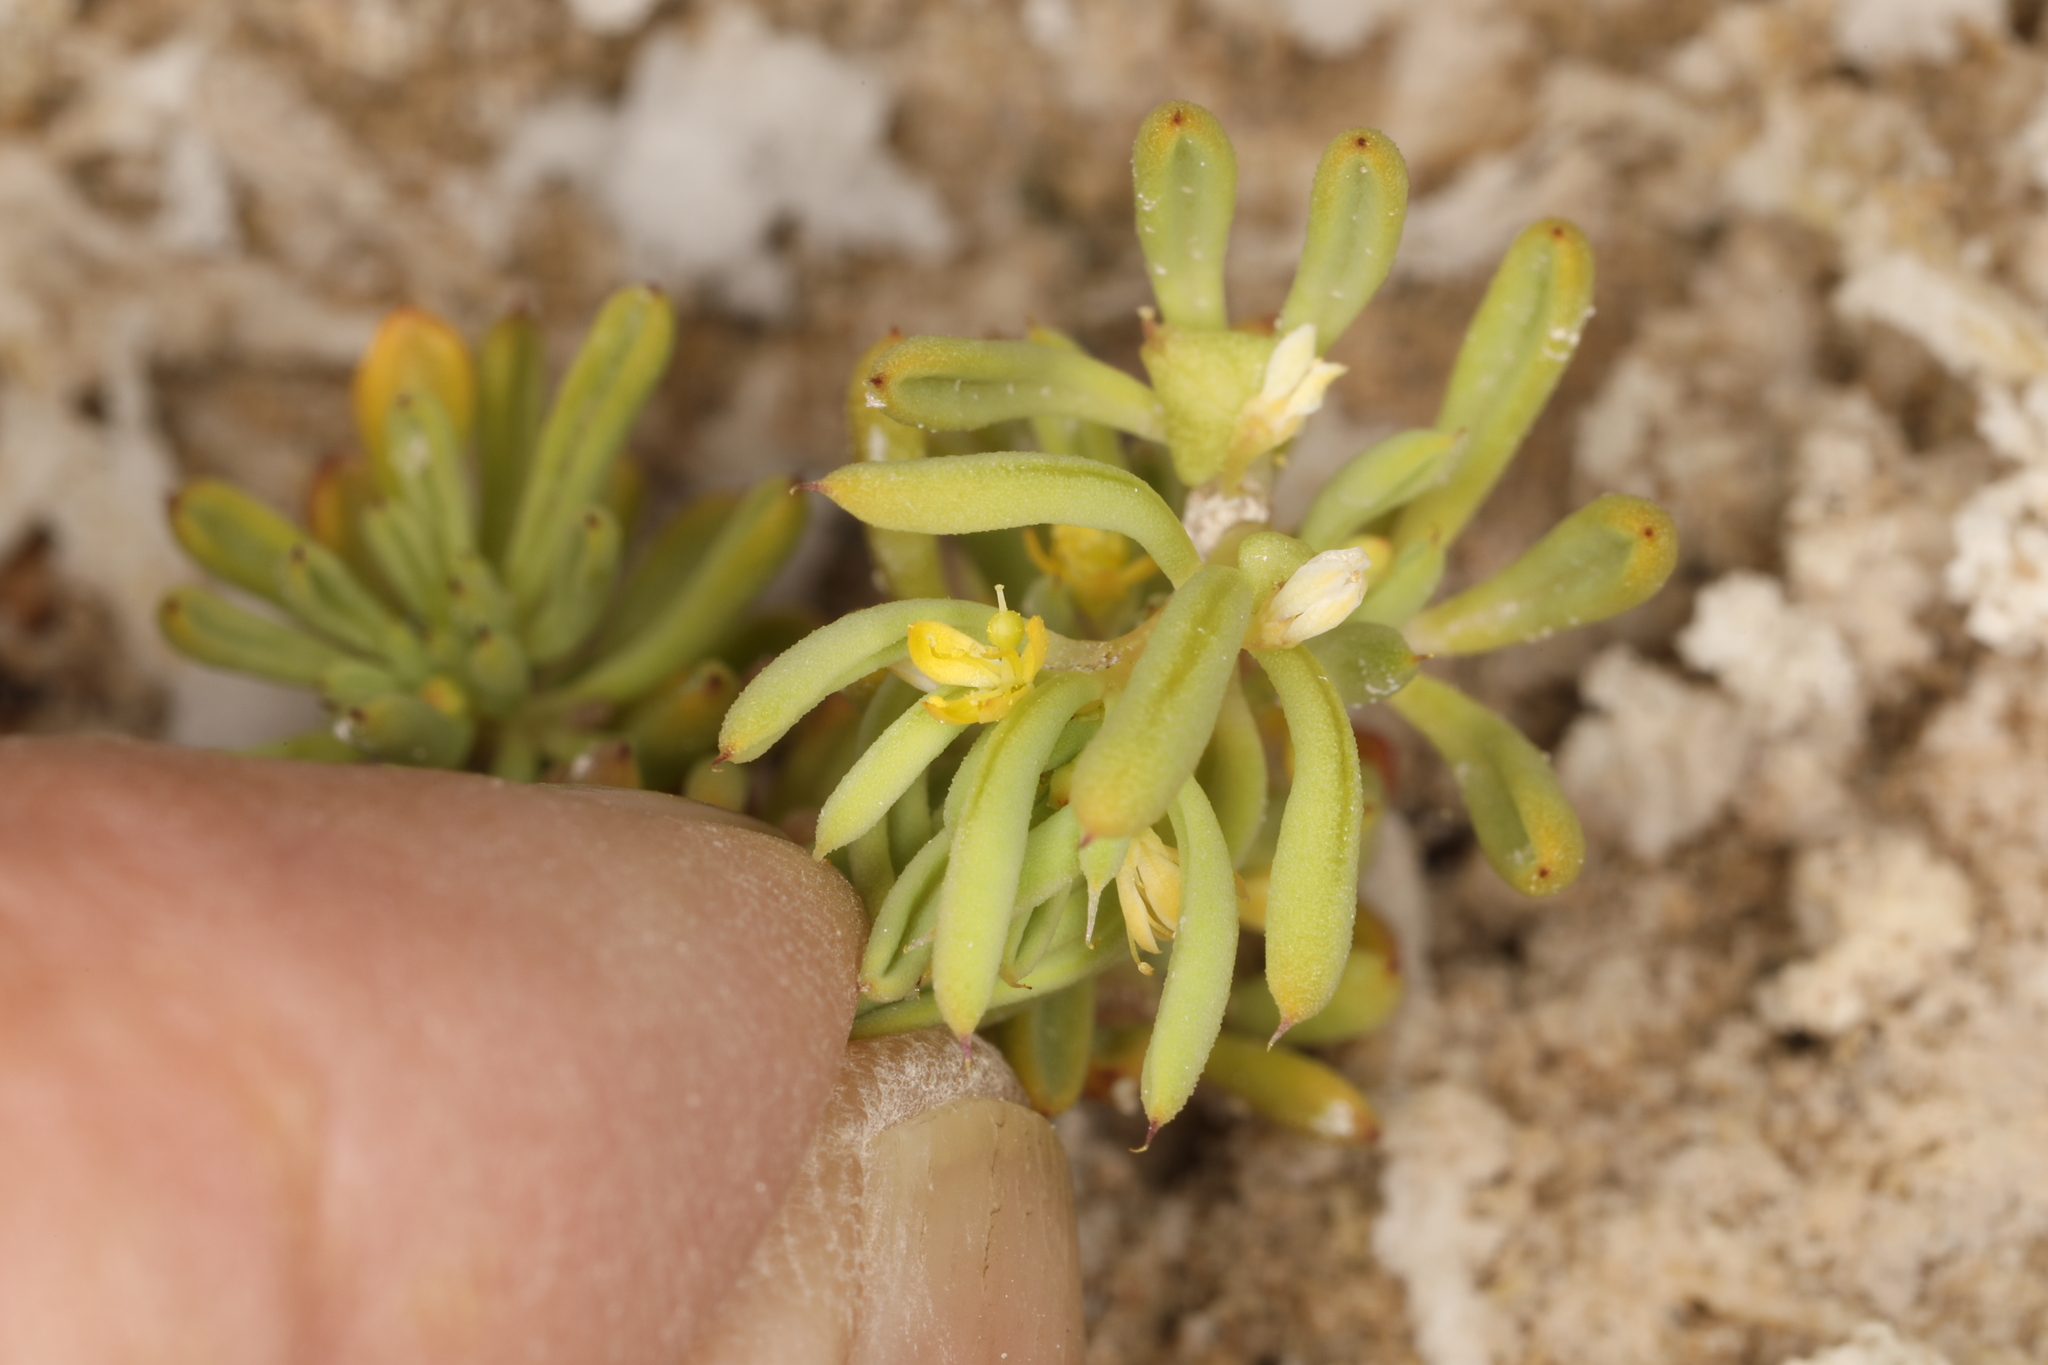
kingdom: Plantae
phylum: Tracheophyta
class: Magnoliopsida
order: Brassicales
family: Cleomaceae
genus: Cleomella
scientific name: Cleomella brevipes
